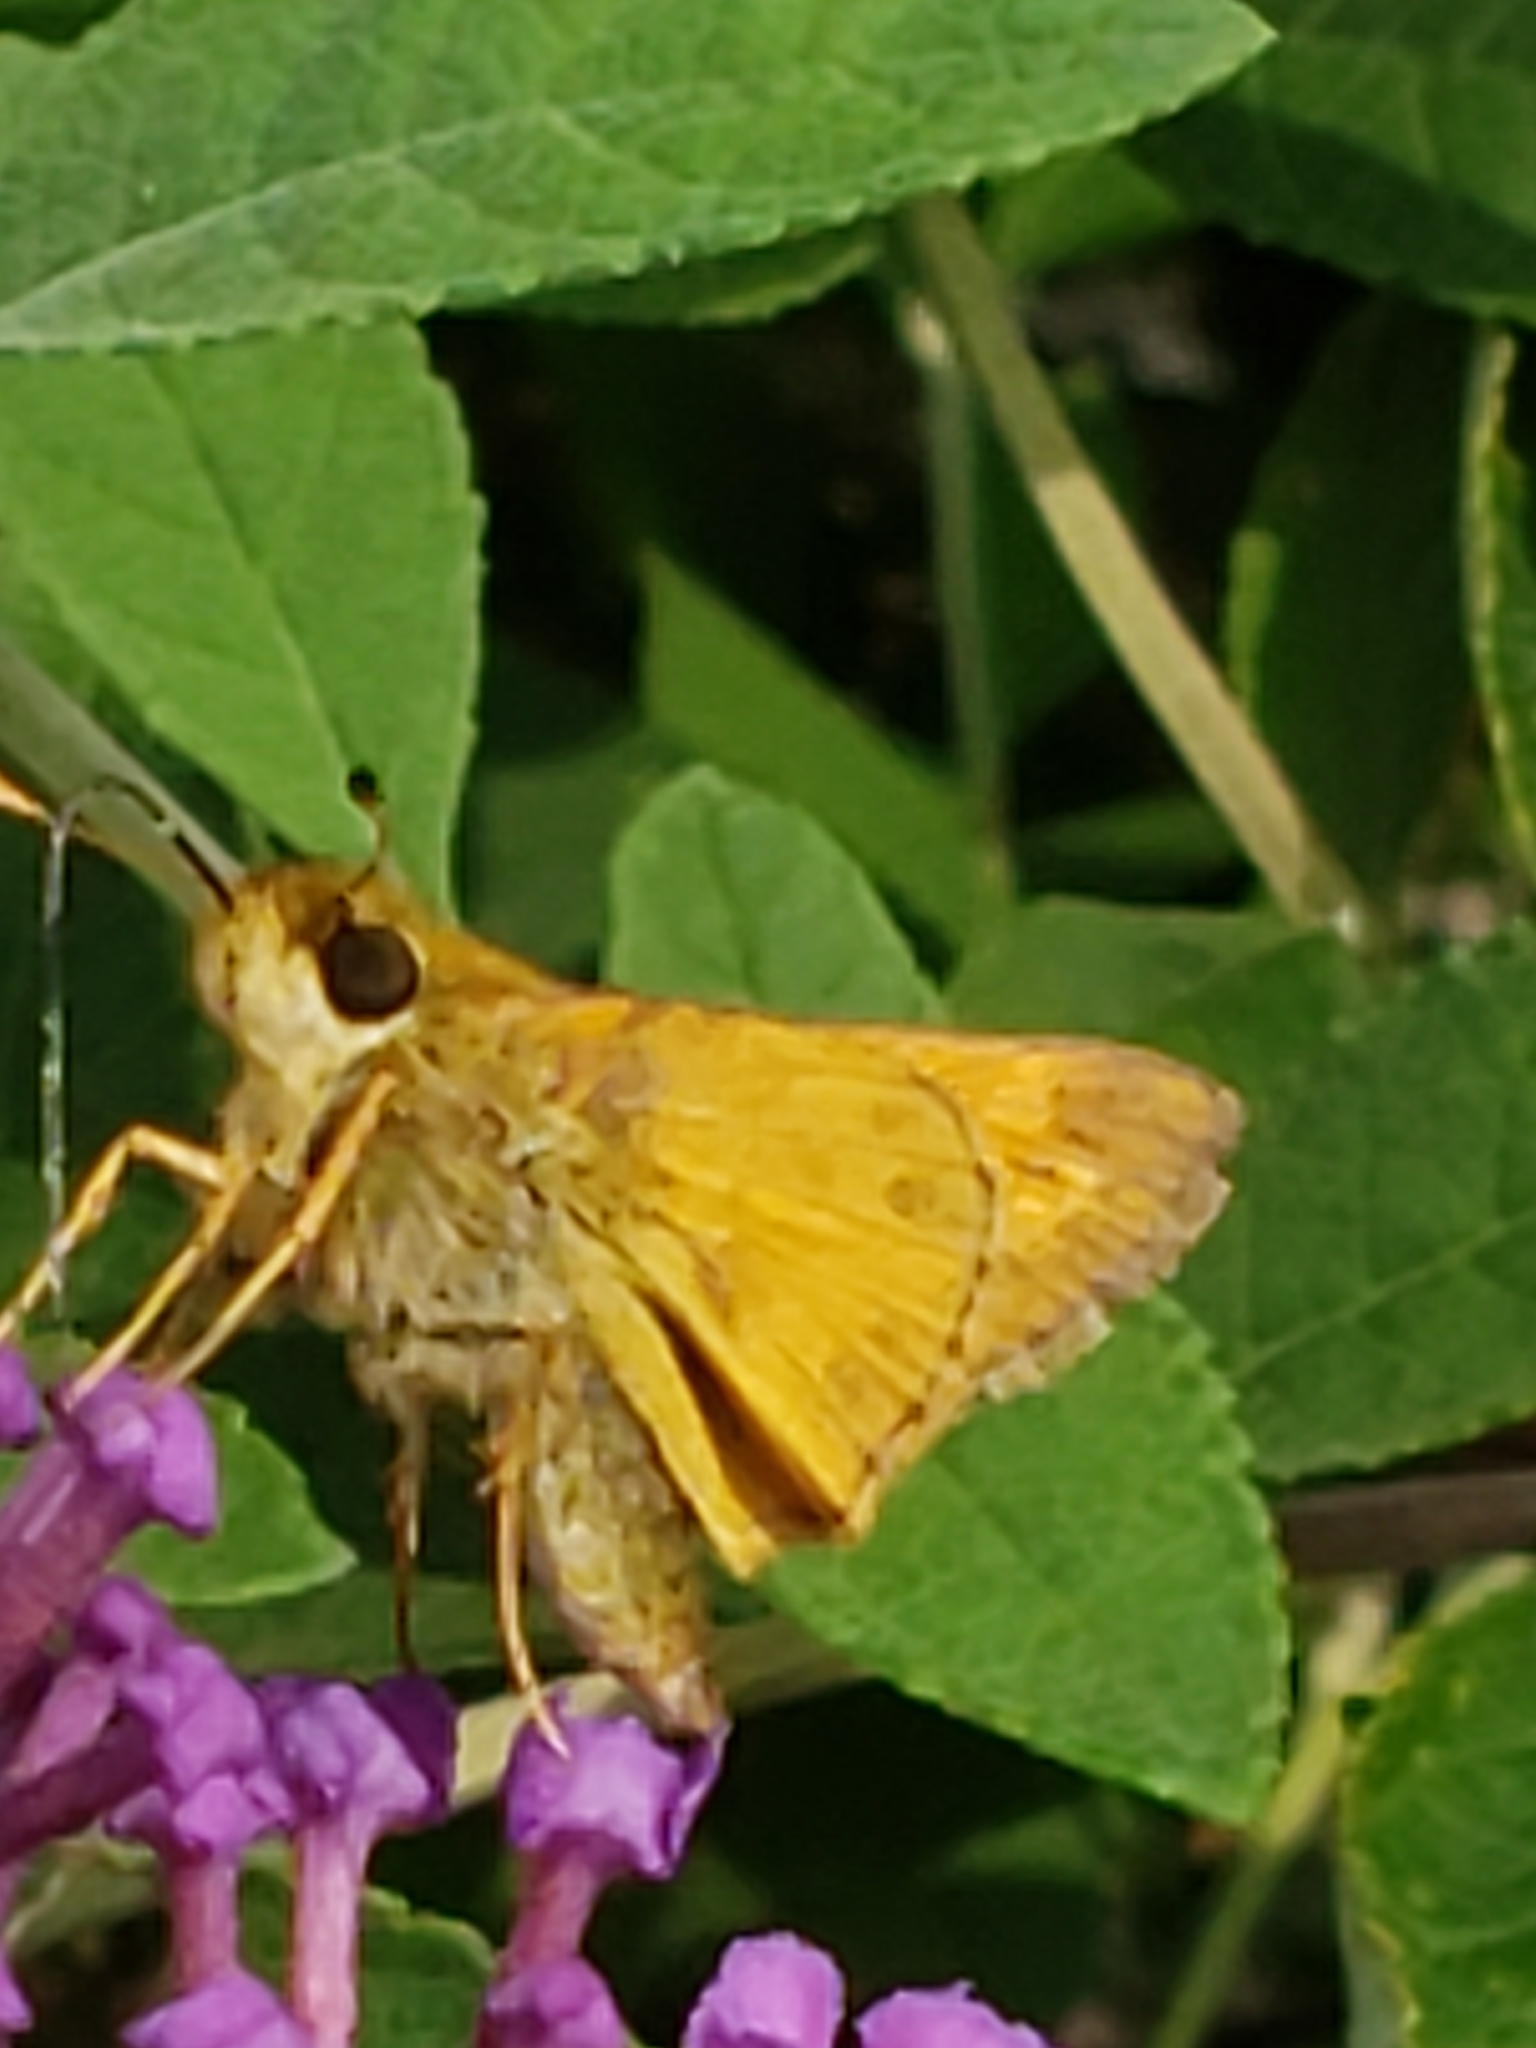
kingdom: Animalia
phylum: Arthropoda
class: Insecta
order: Lepidoptera
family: Hesperiidae
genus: Atalopedes
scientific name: Atalopedes
